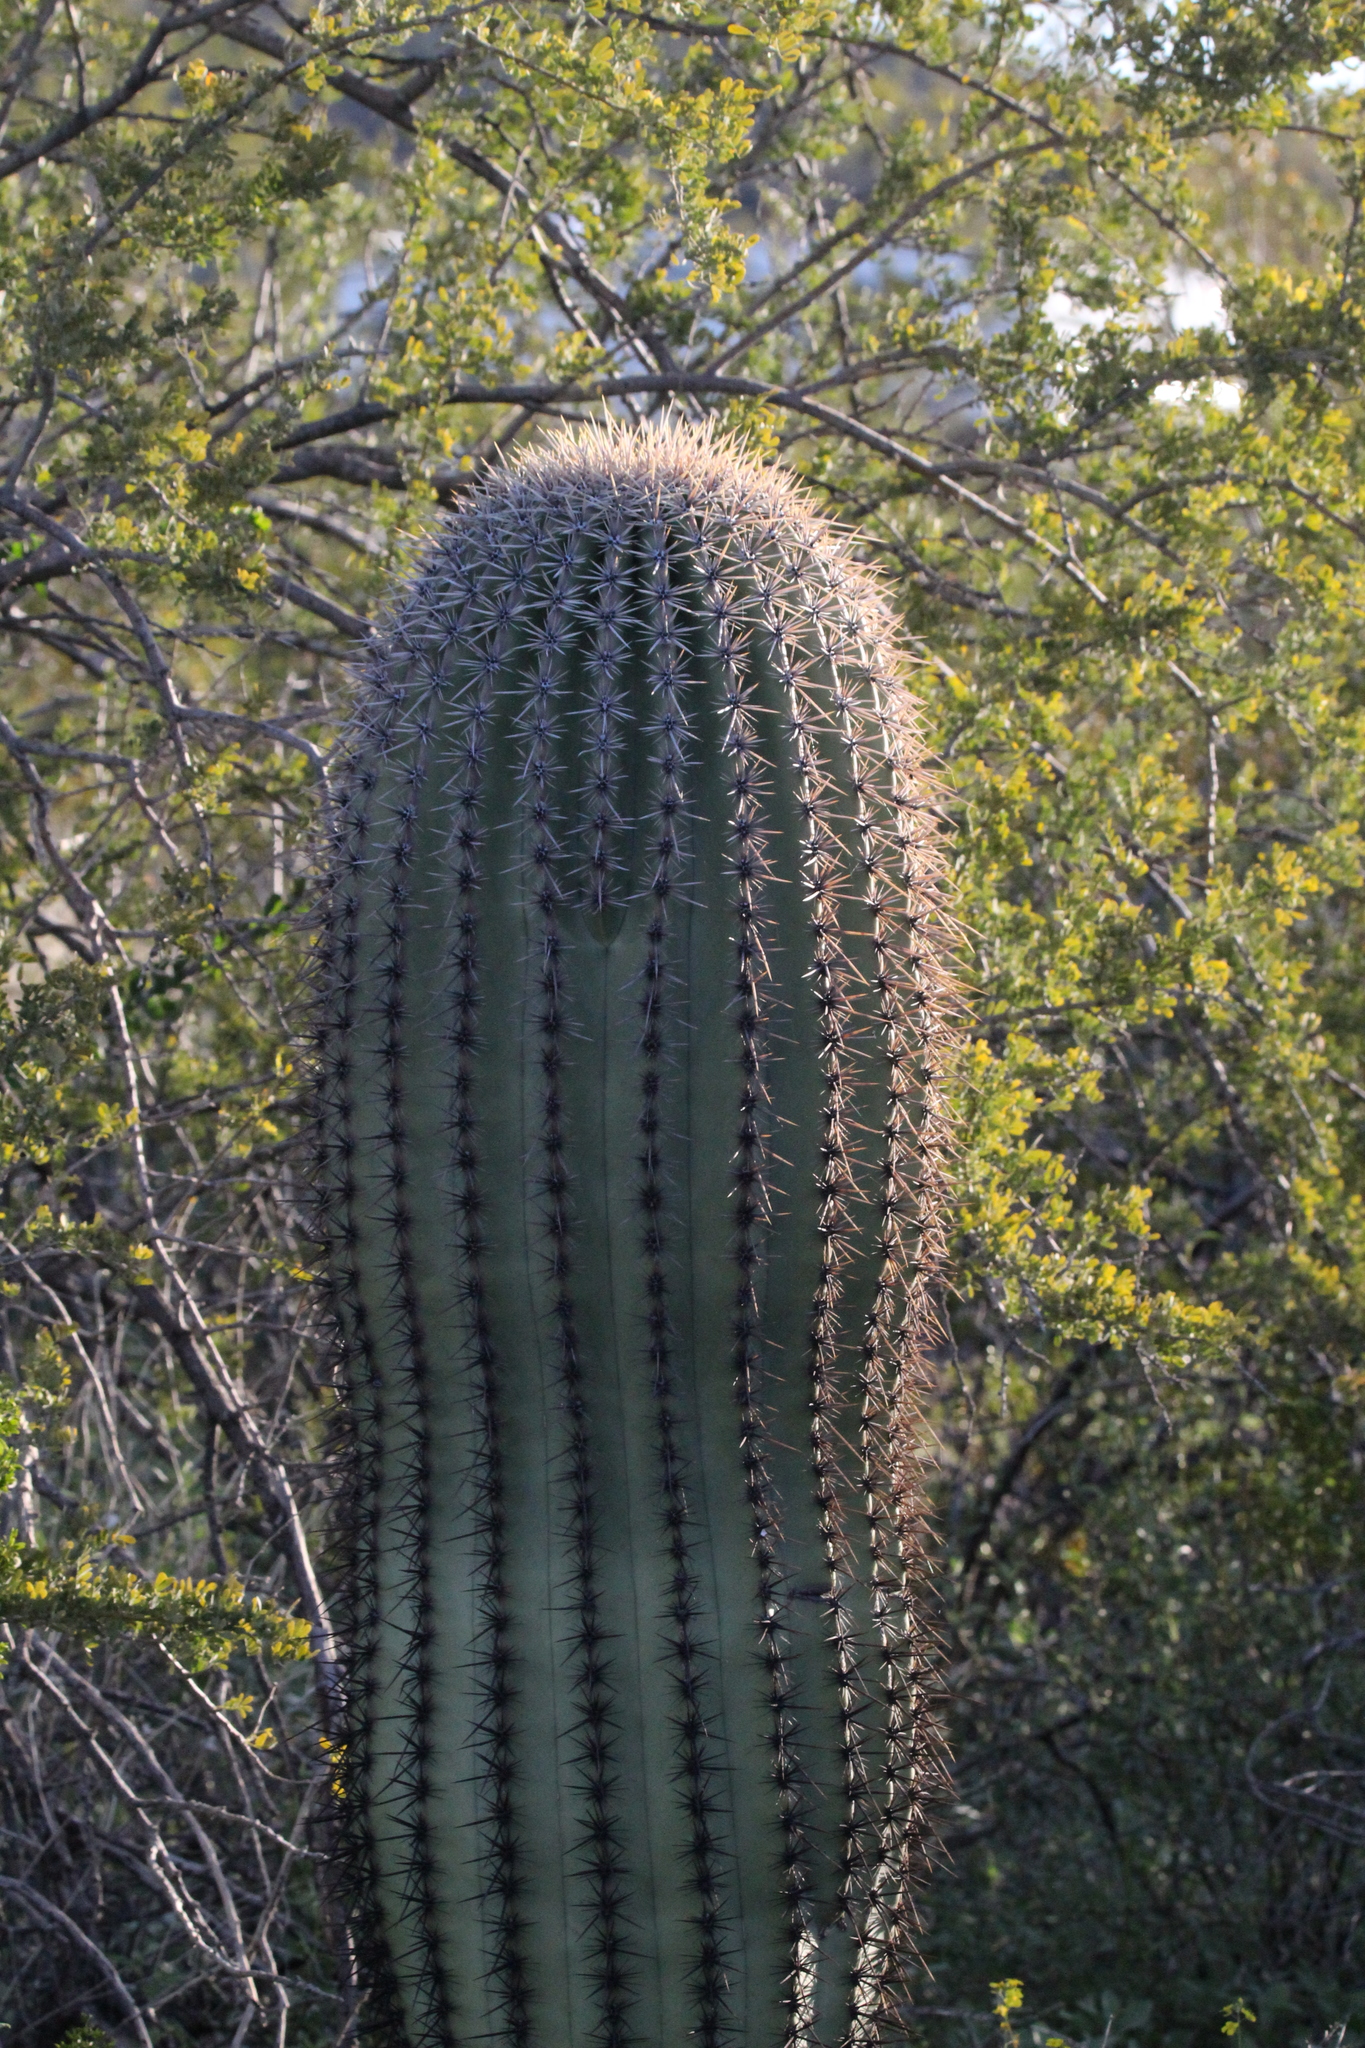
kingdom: Plantae
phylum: Tracheophyta
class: Magnoliopsida
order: Caryophyllales
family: Cactaceae
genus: Carnegiea
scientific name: Carnegiea gigantea
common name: Saguaro
